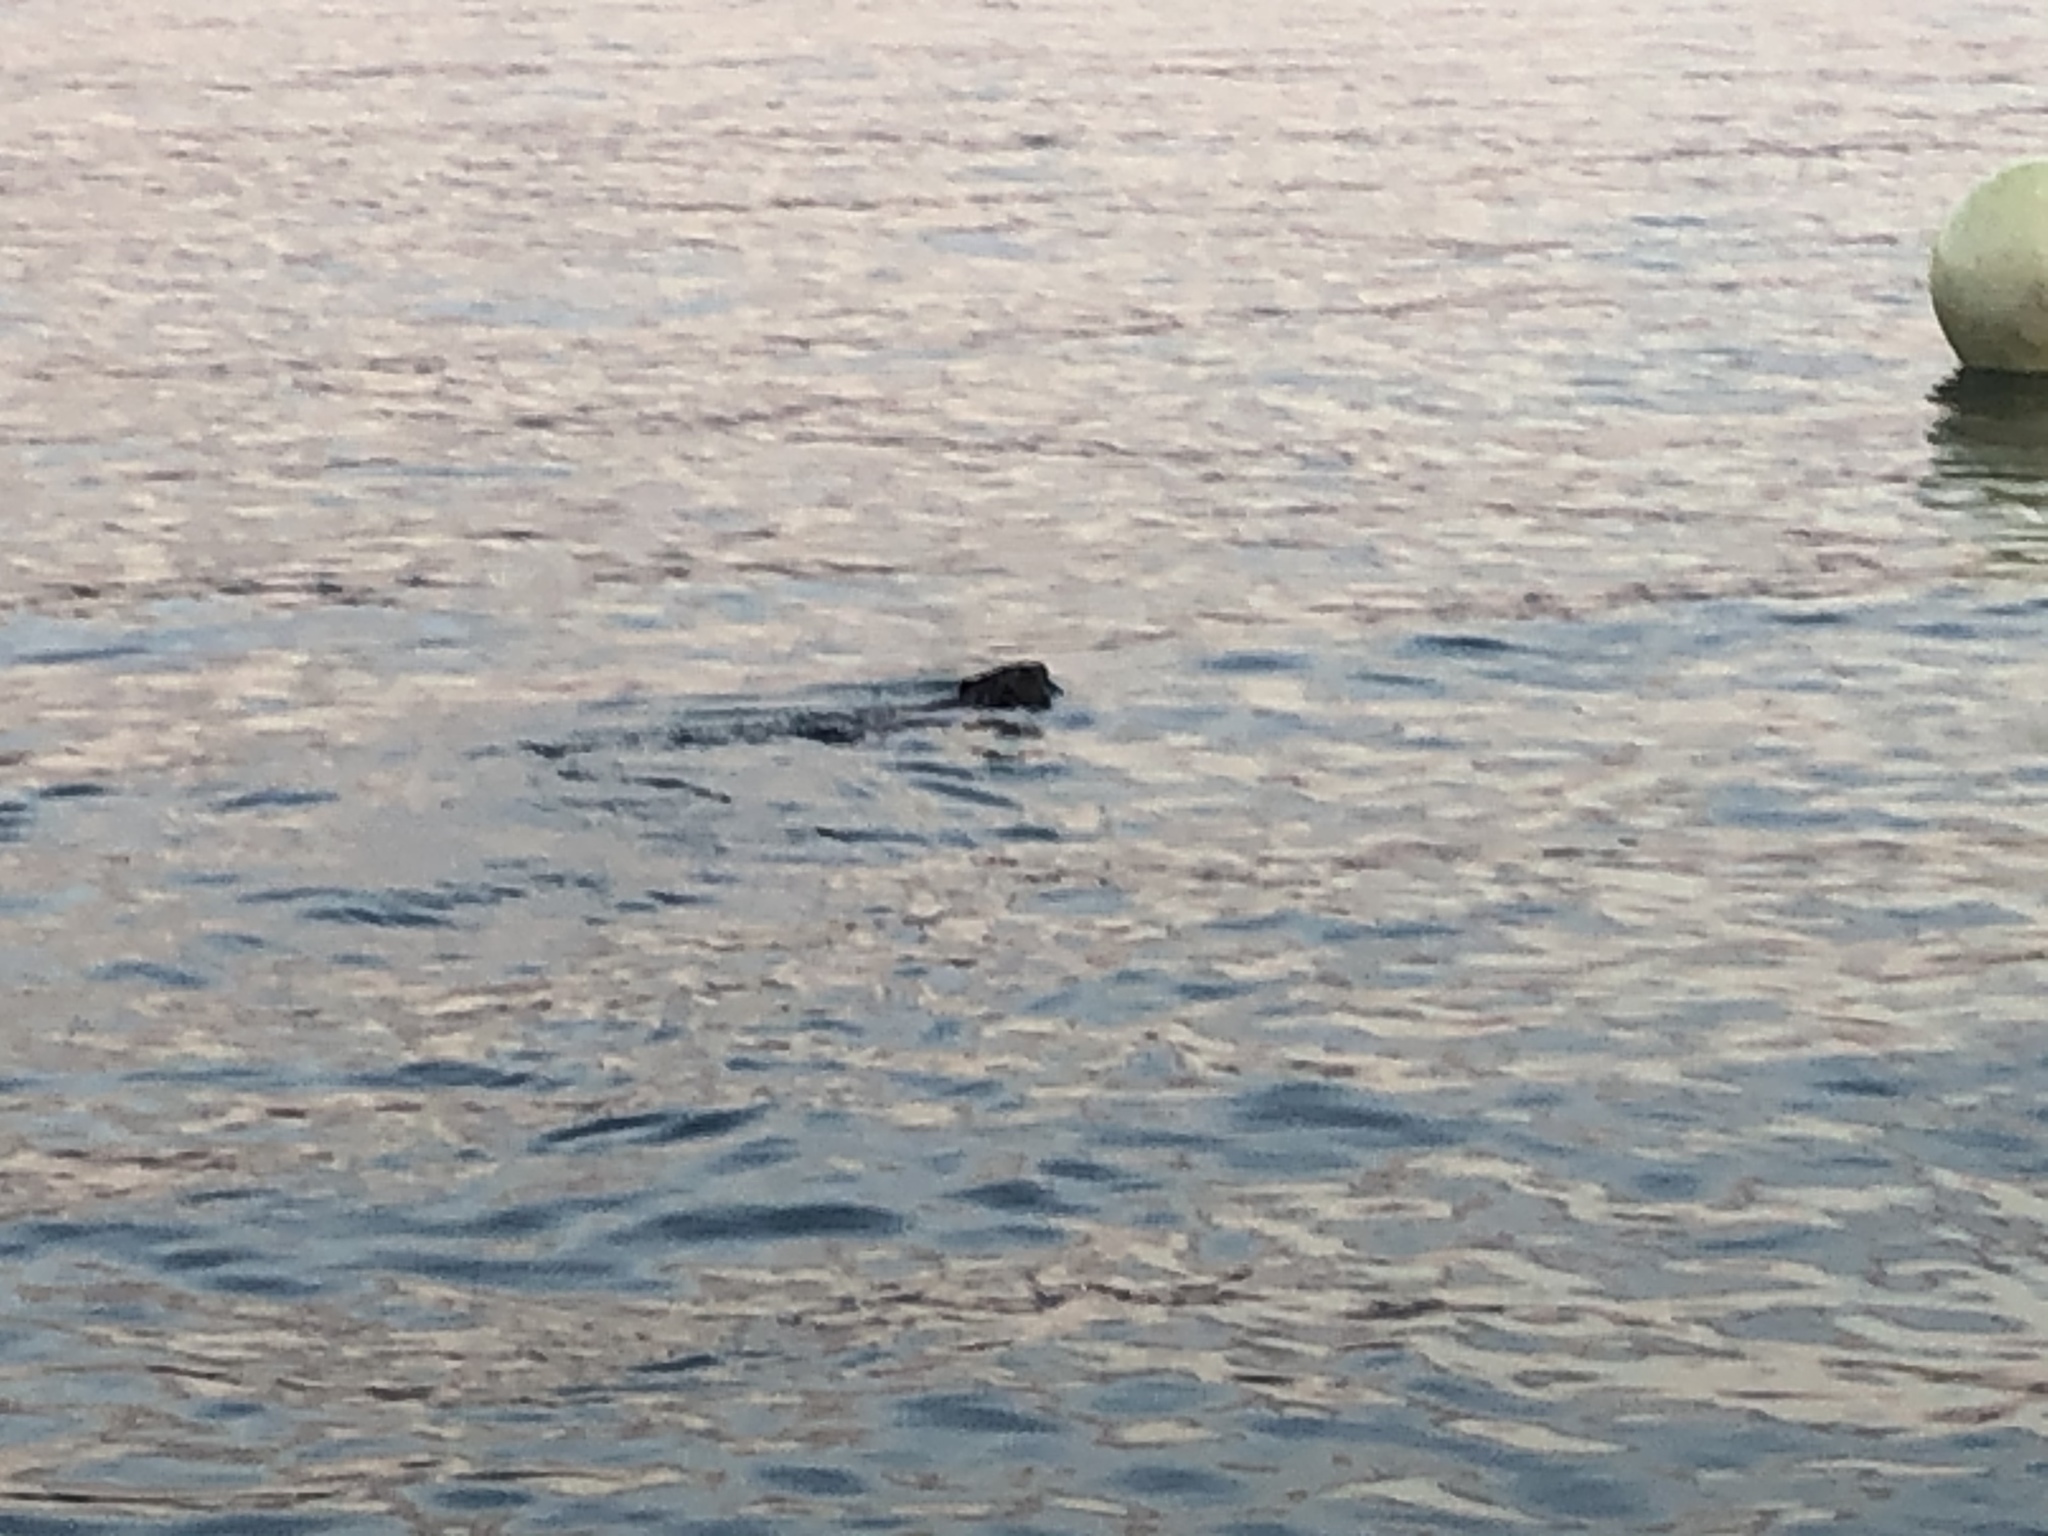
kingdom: Animalia
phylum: Chordata
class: Mammalia
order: Rodentia
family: Castoridae
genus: Castor
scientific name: Castor fiber
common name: Eurasian beaver
